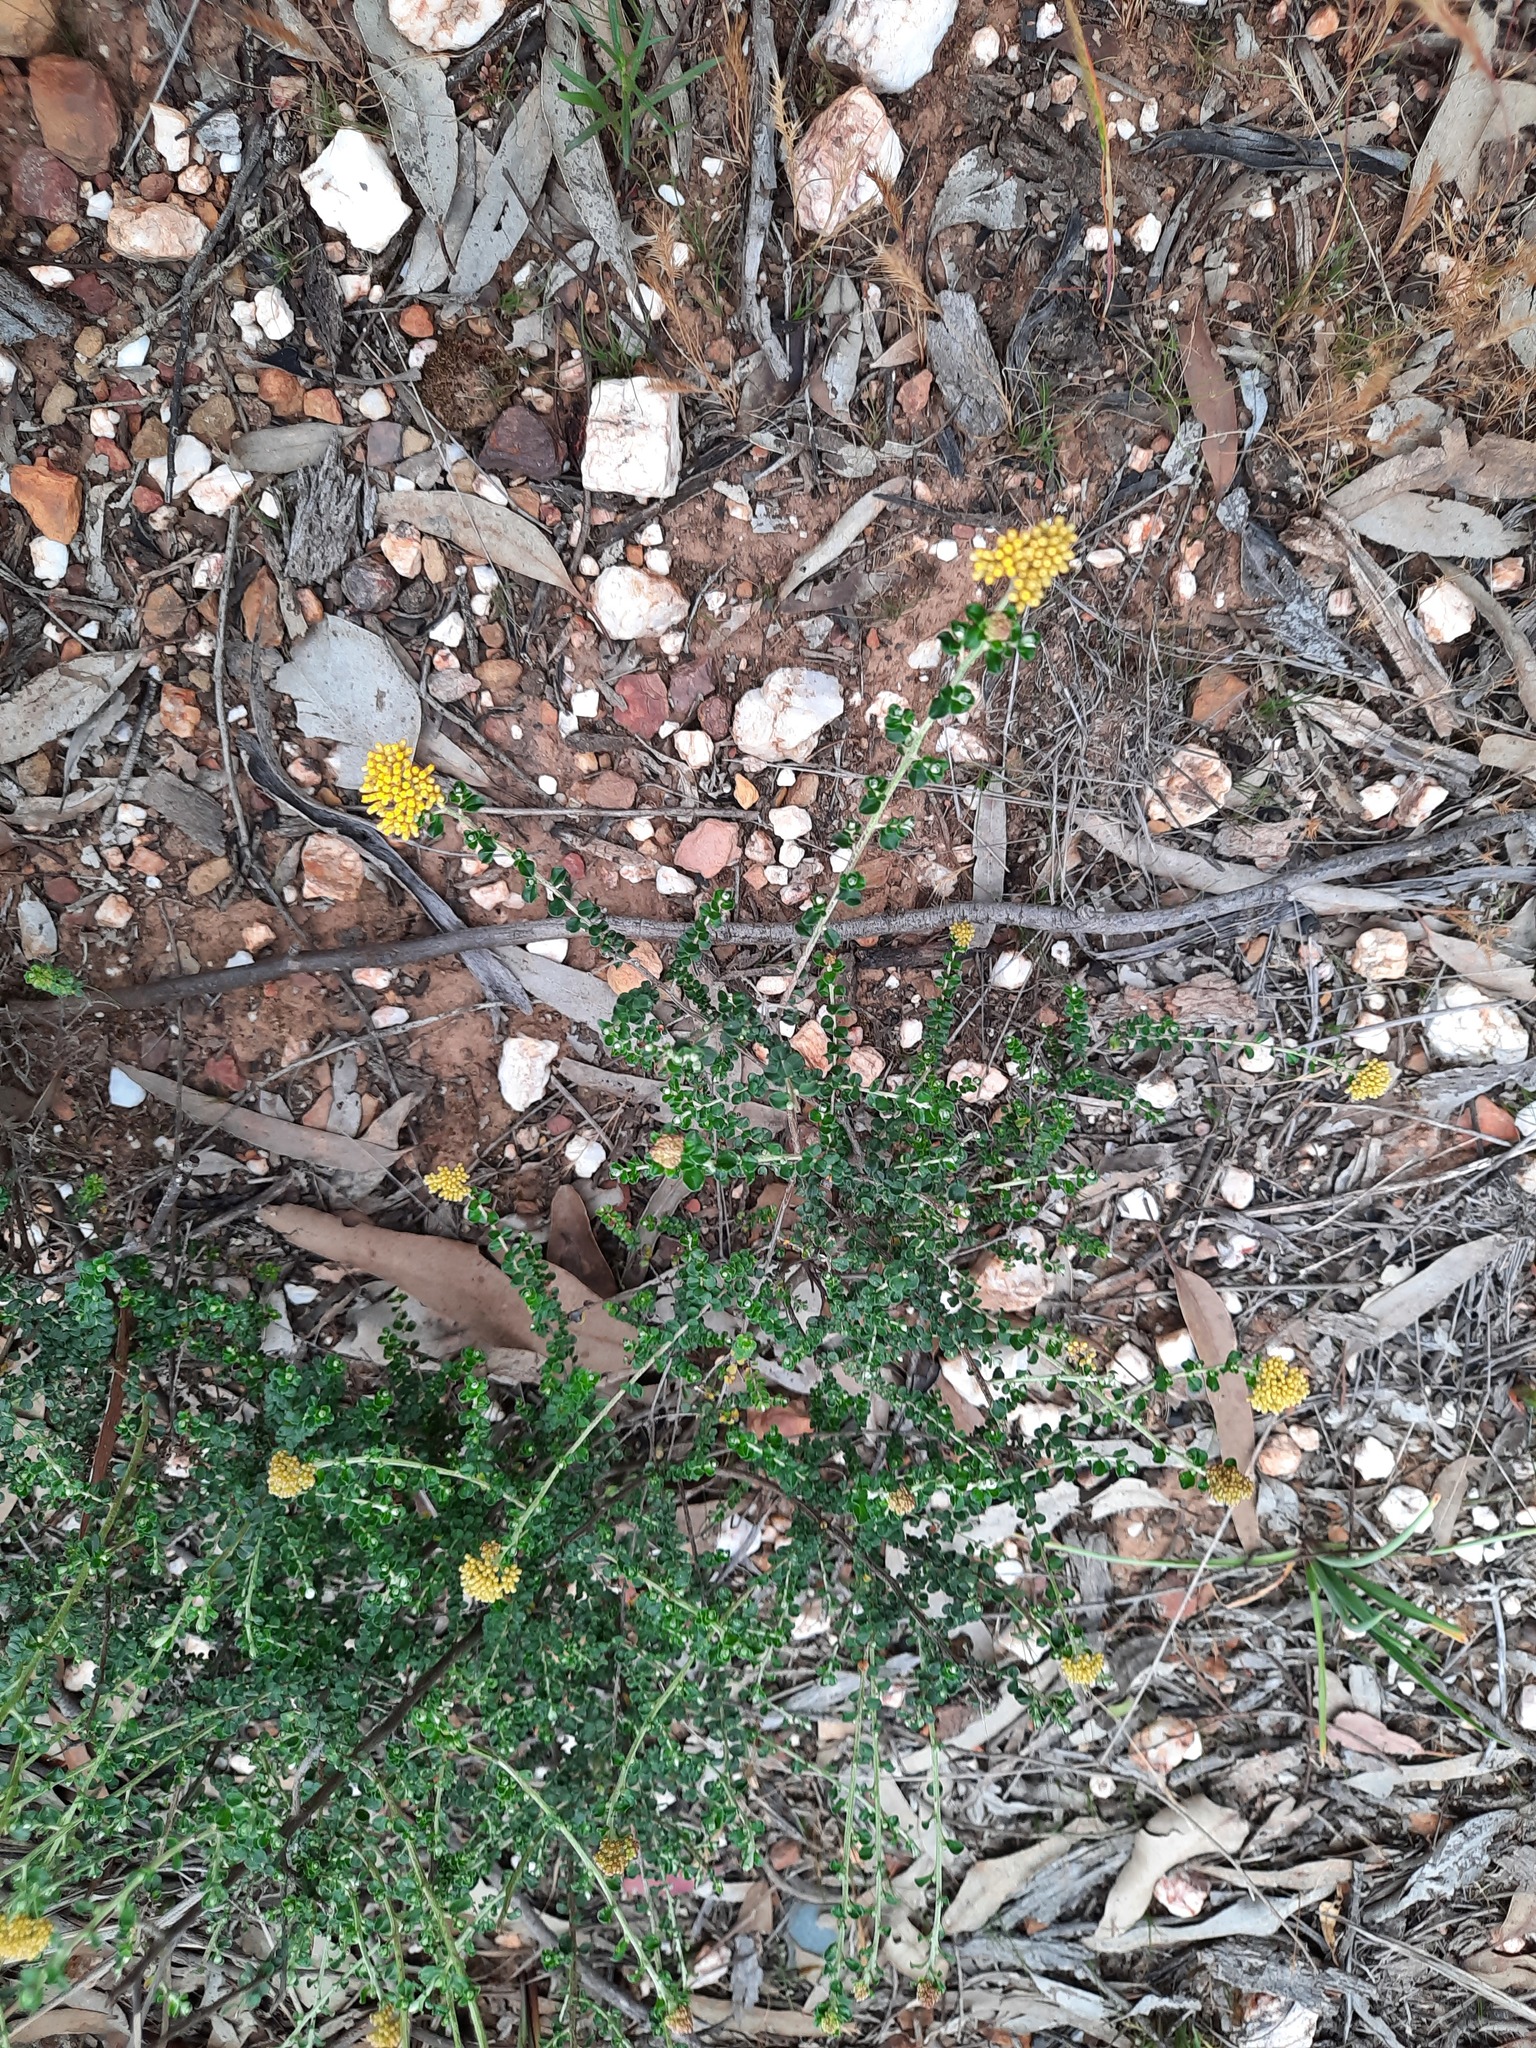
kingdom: Plantae
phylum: Tracheophyta
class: Magnoliopsida
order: Asterales
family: Asteraceae
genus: Ozothamnus
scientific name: Ozothamnus obcordatus
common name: Grey everlasting
